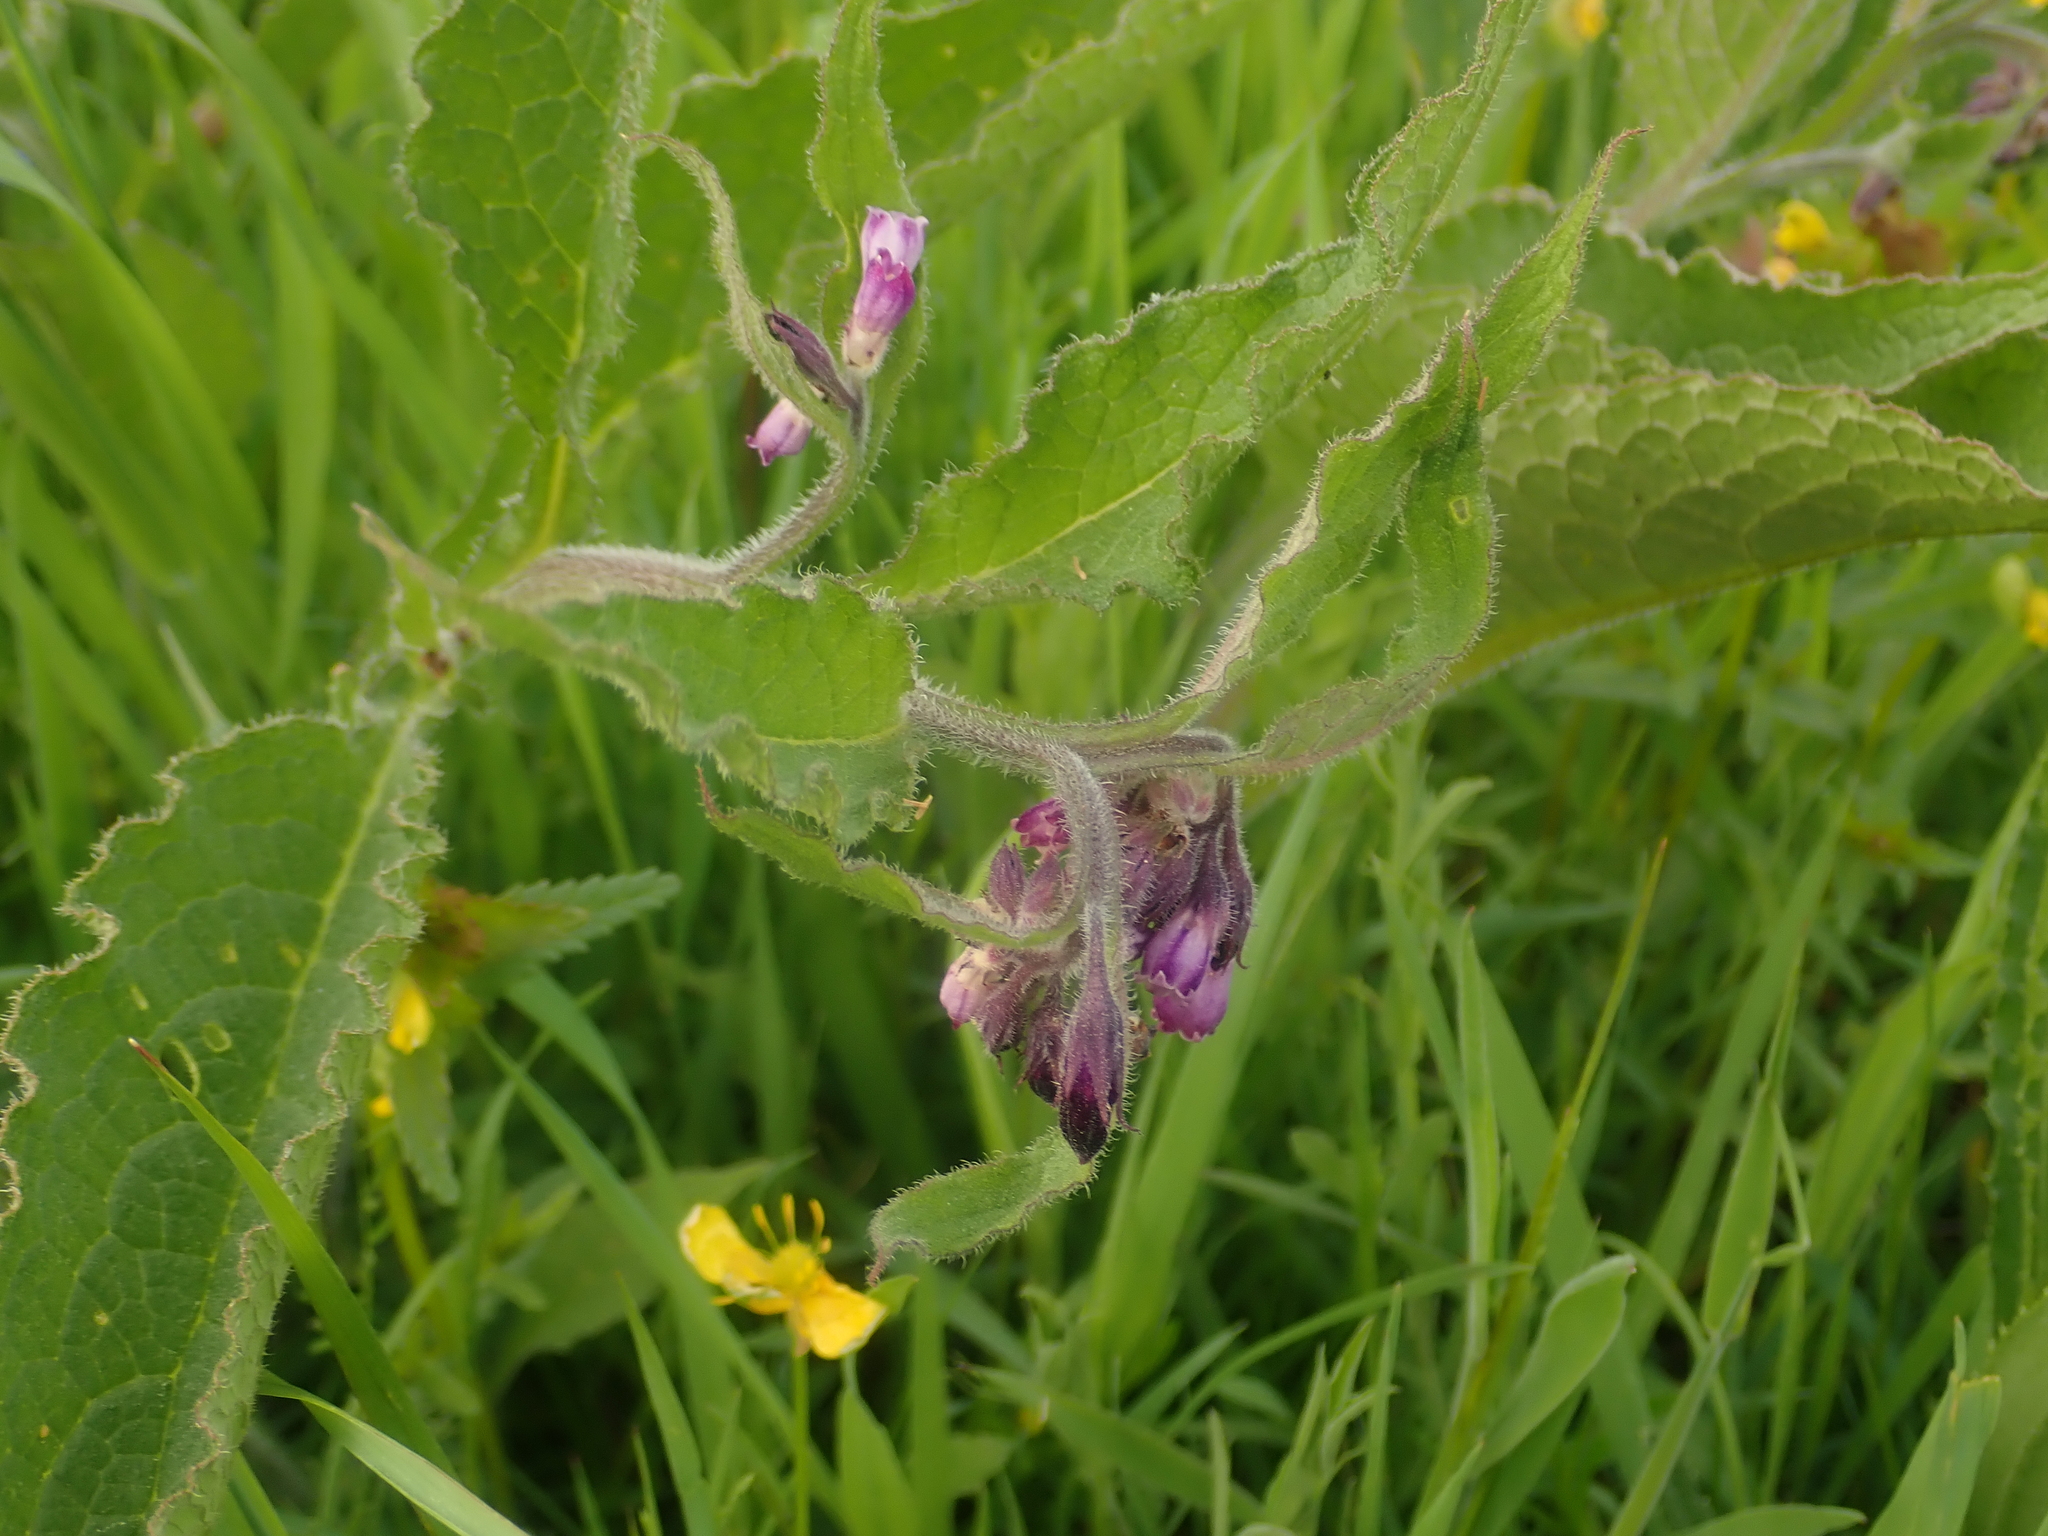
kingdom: Plantae
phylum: Tracheophyta
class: Magnoliopsida
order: Boraginales
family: Boraginaceae
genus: Symphytum
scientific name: Symphytum officinale
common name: Common comfrey
